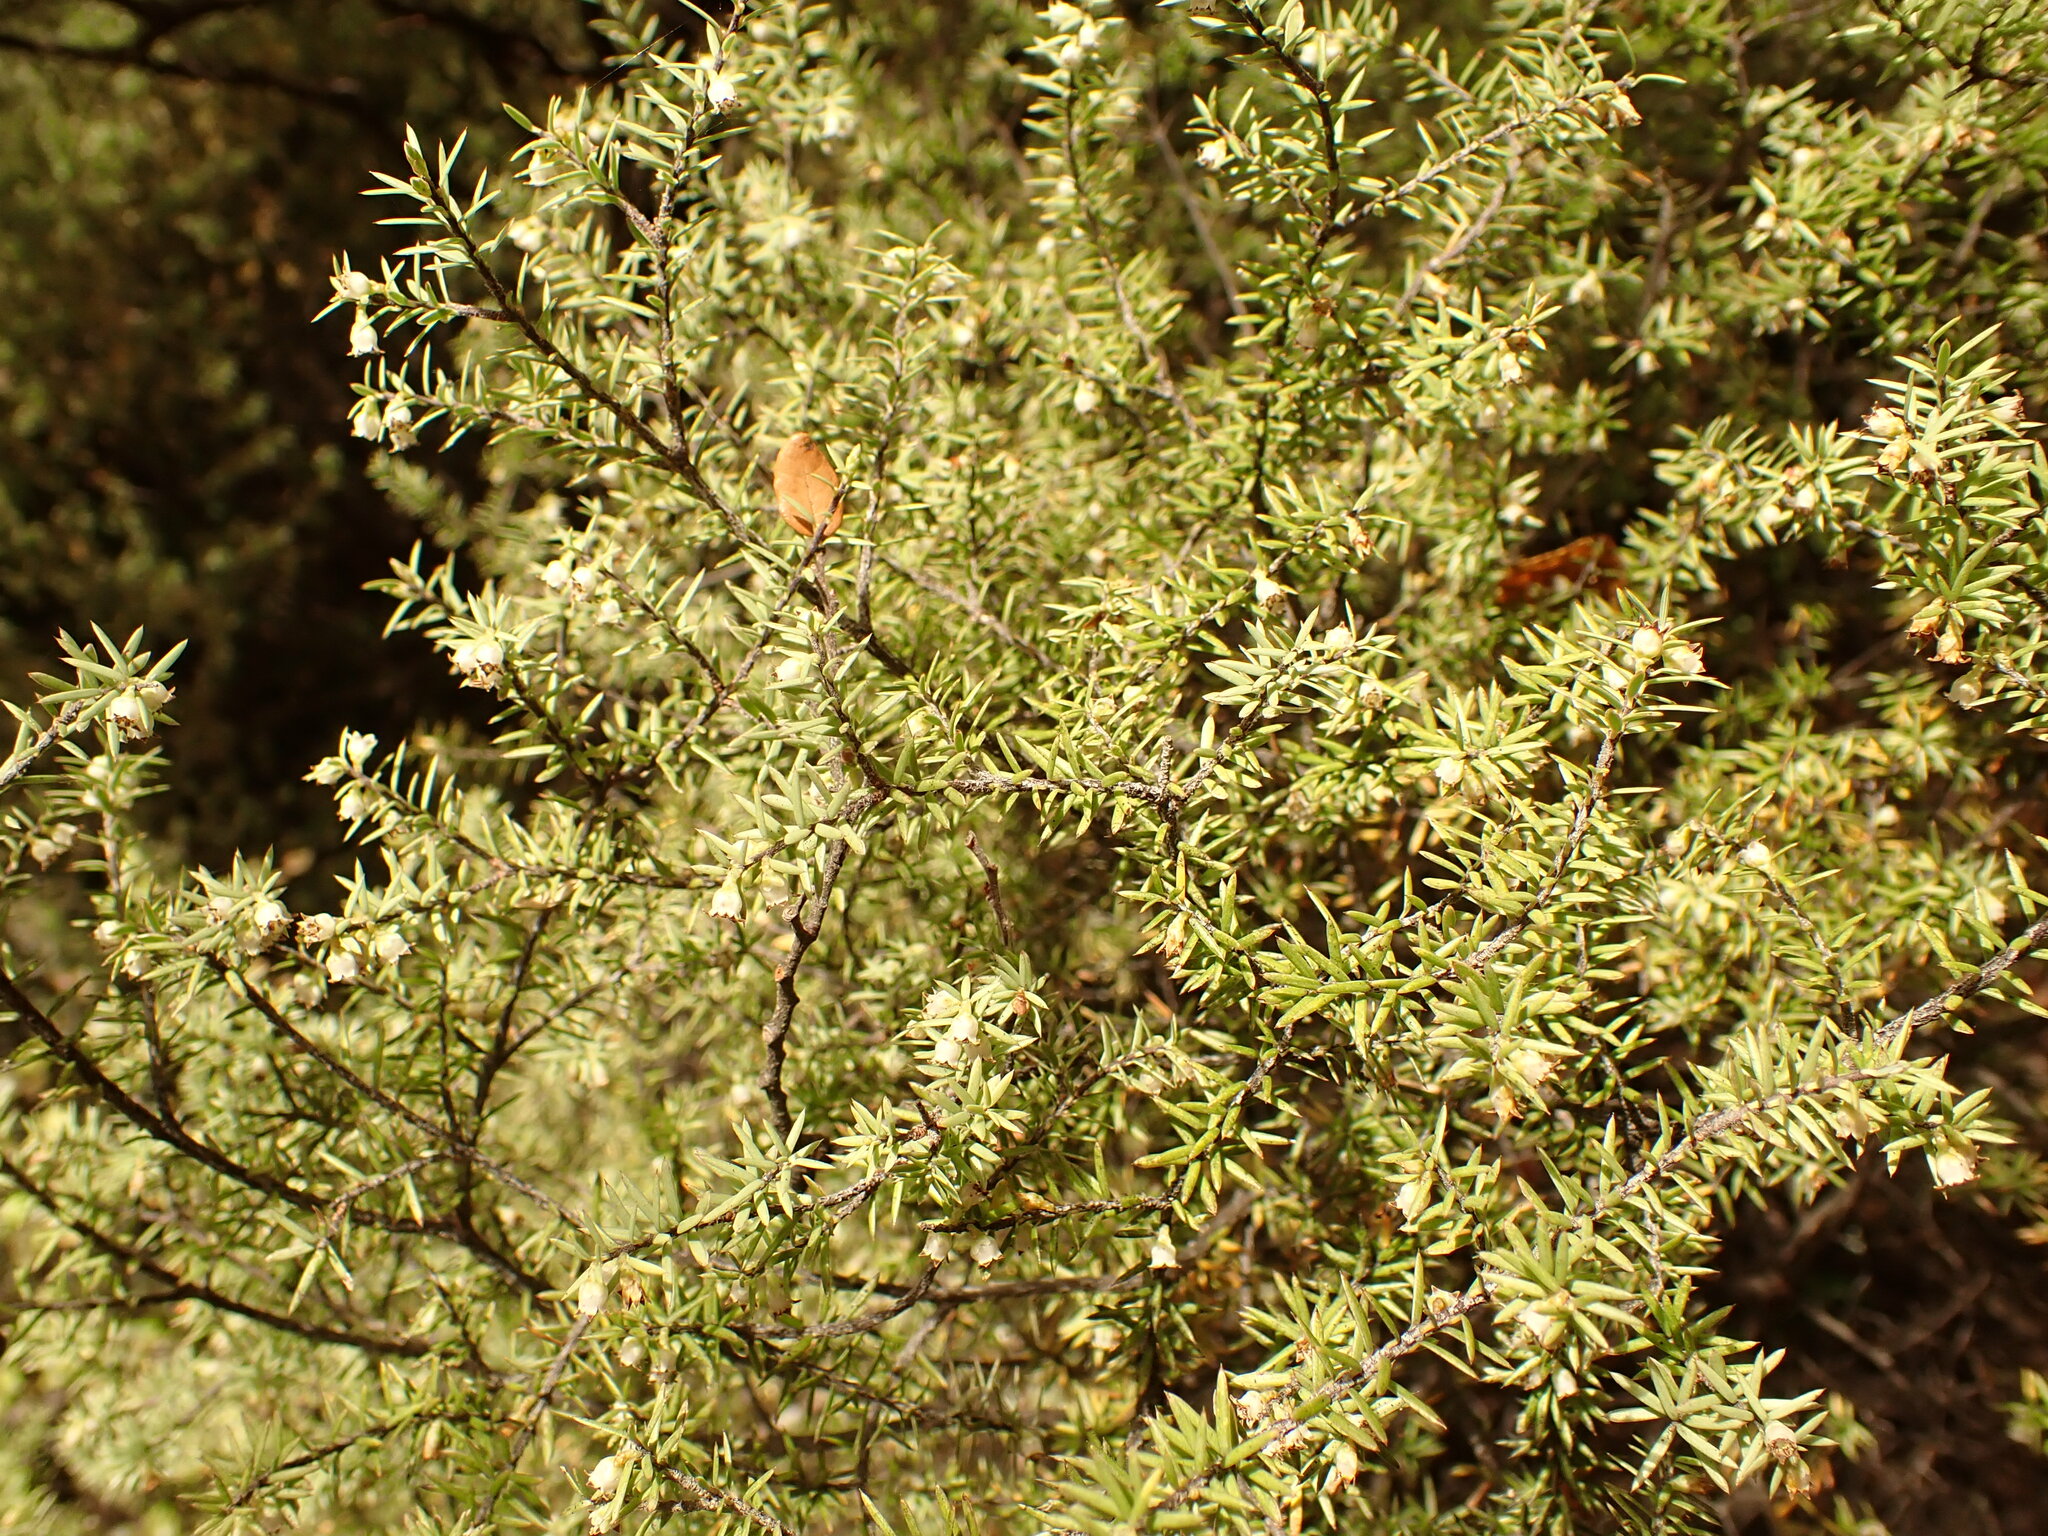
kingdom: Plantae
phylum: Tracheophyta
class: Magnoliopsida
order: Ericales
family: Ericaceae
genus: Leptecophylla
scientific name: Leptecophylla juniperina
